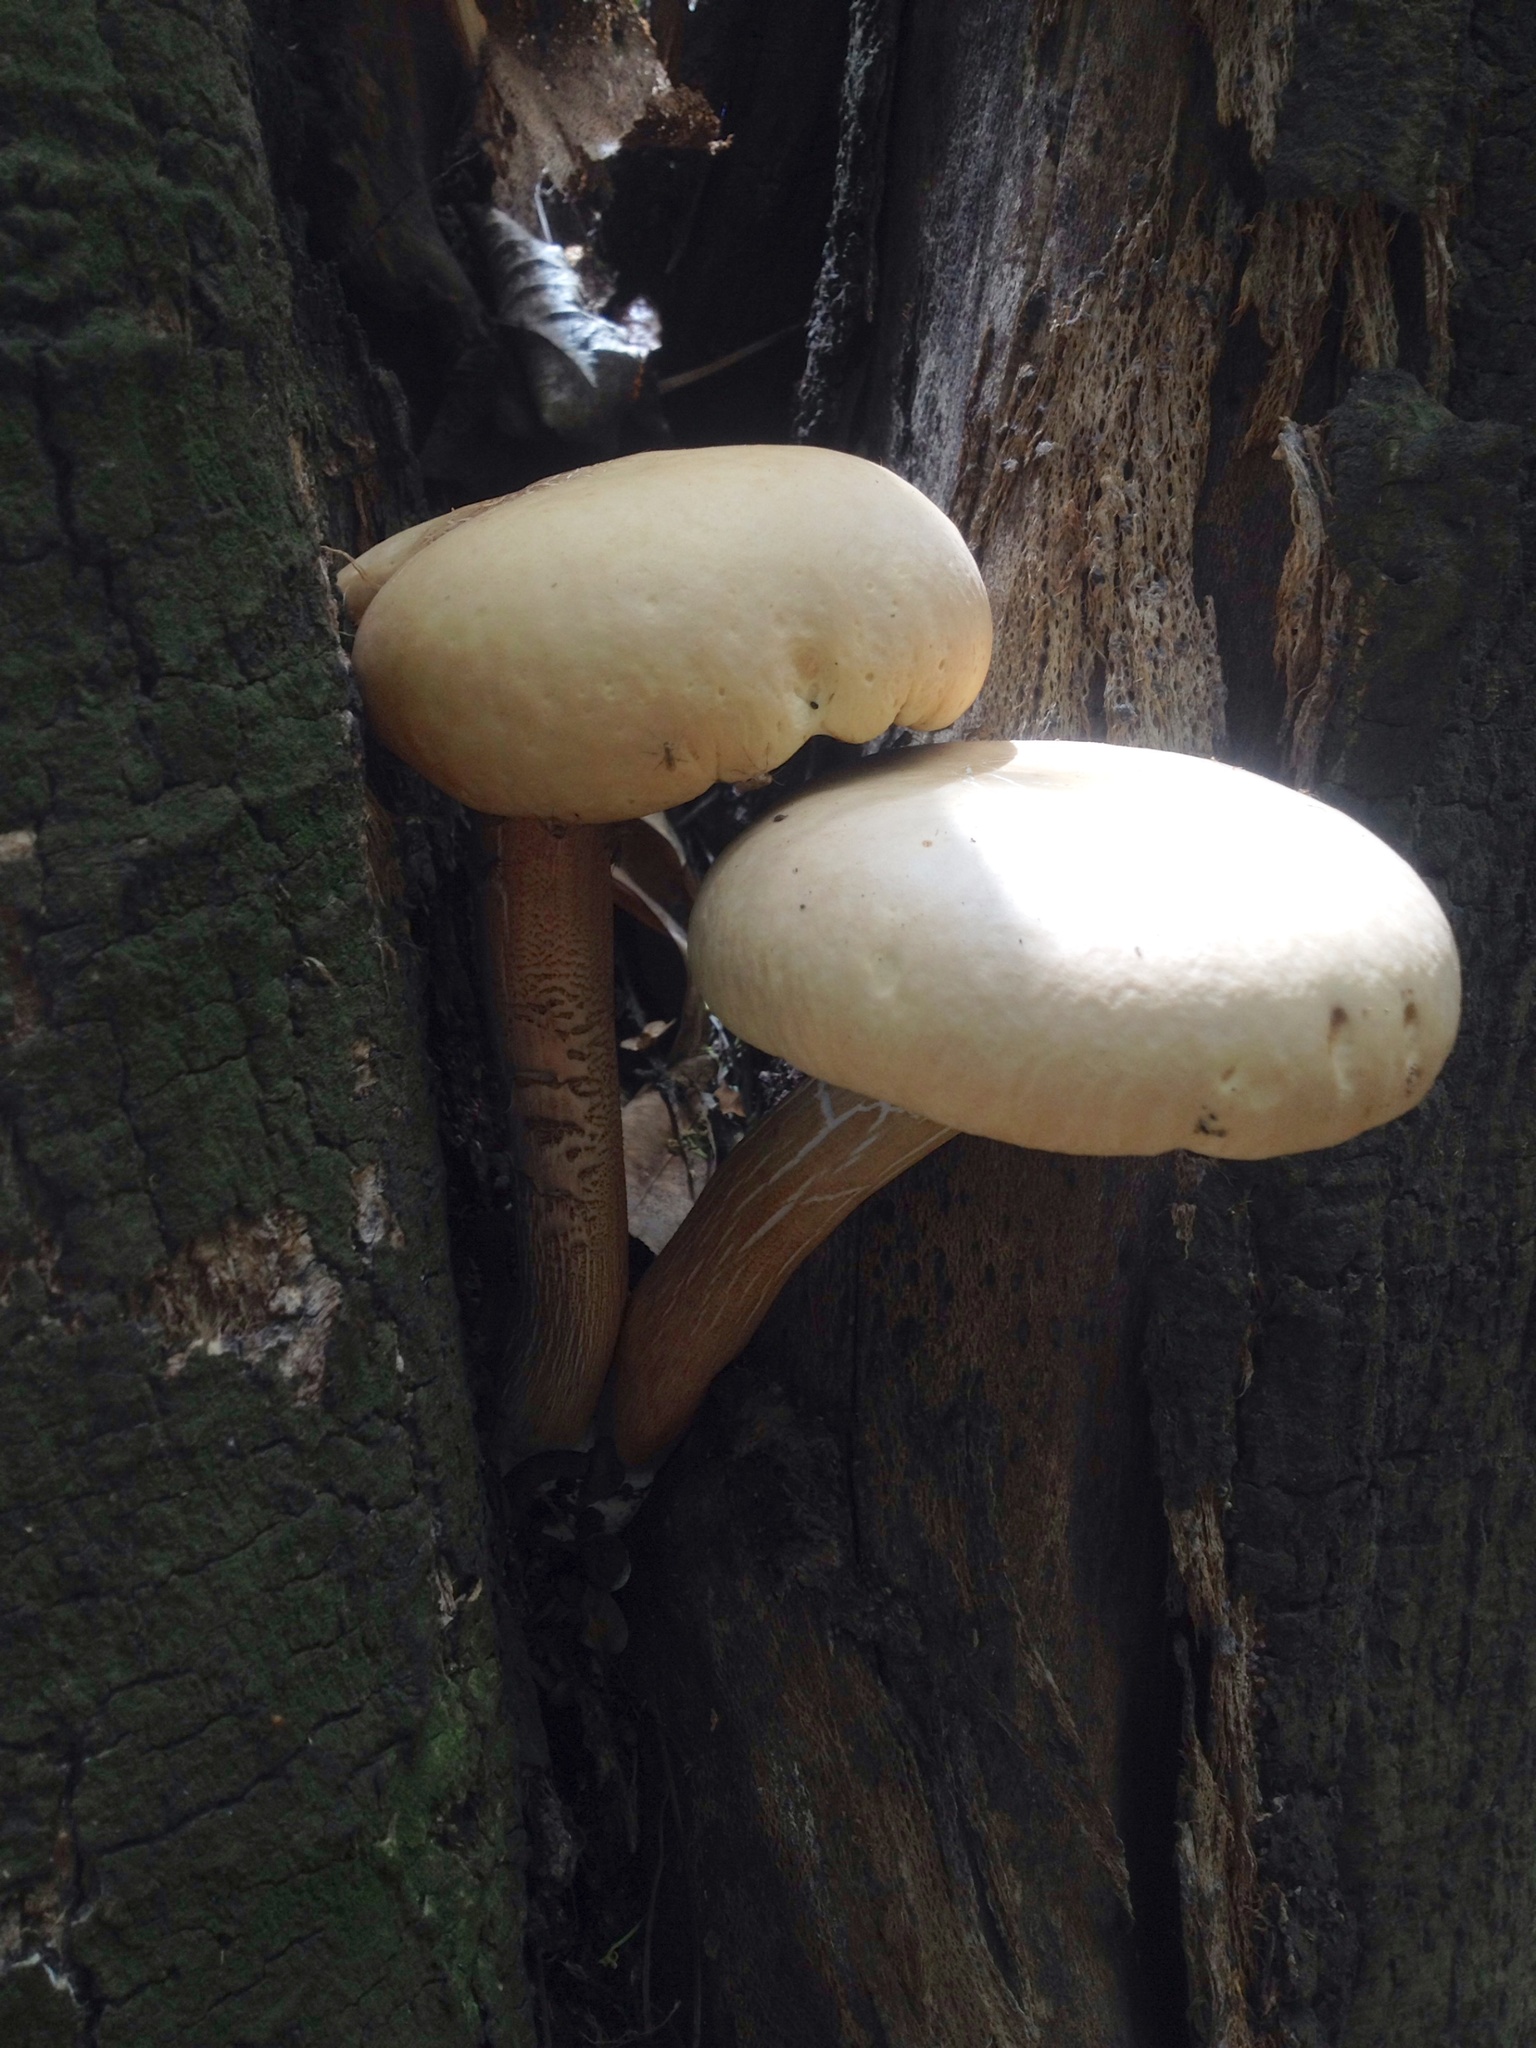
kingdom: Fungi
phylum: Basidiomycota
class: Agaricomycetes
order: Agaricales
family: Tubariaceae
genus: Cyclocybe
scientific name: Cyclocybe parasitica
